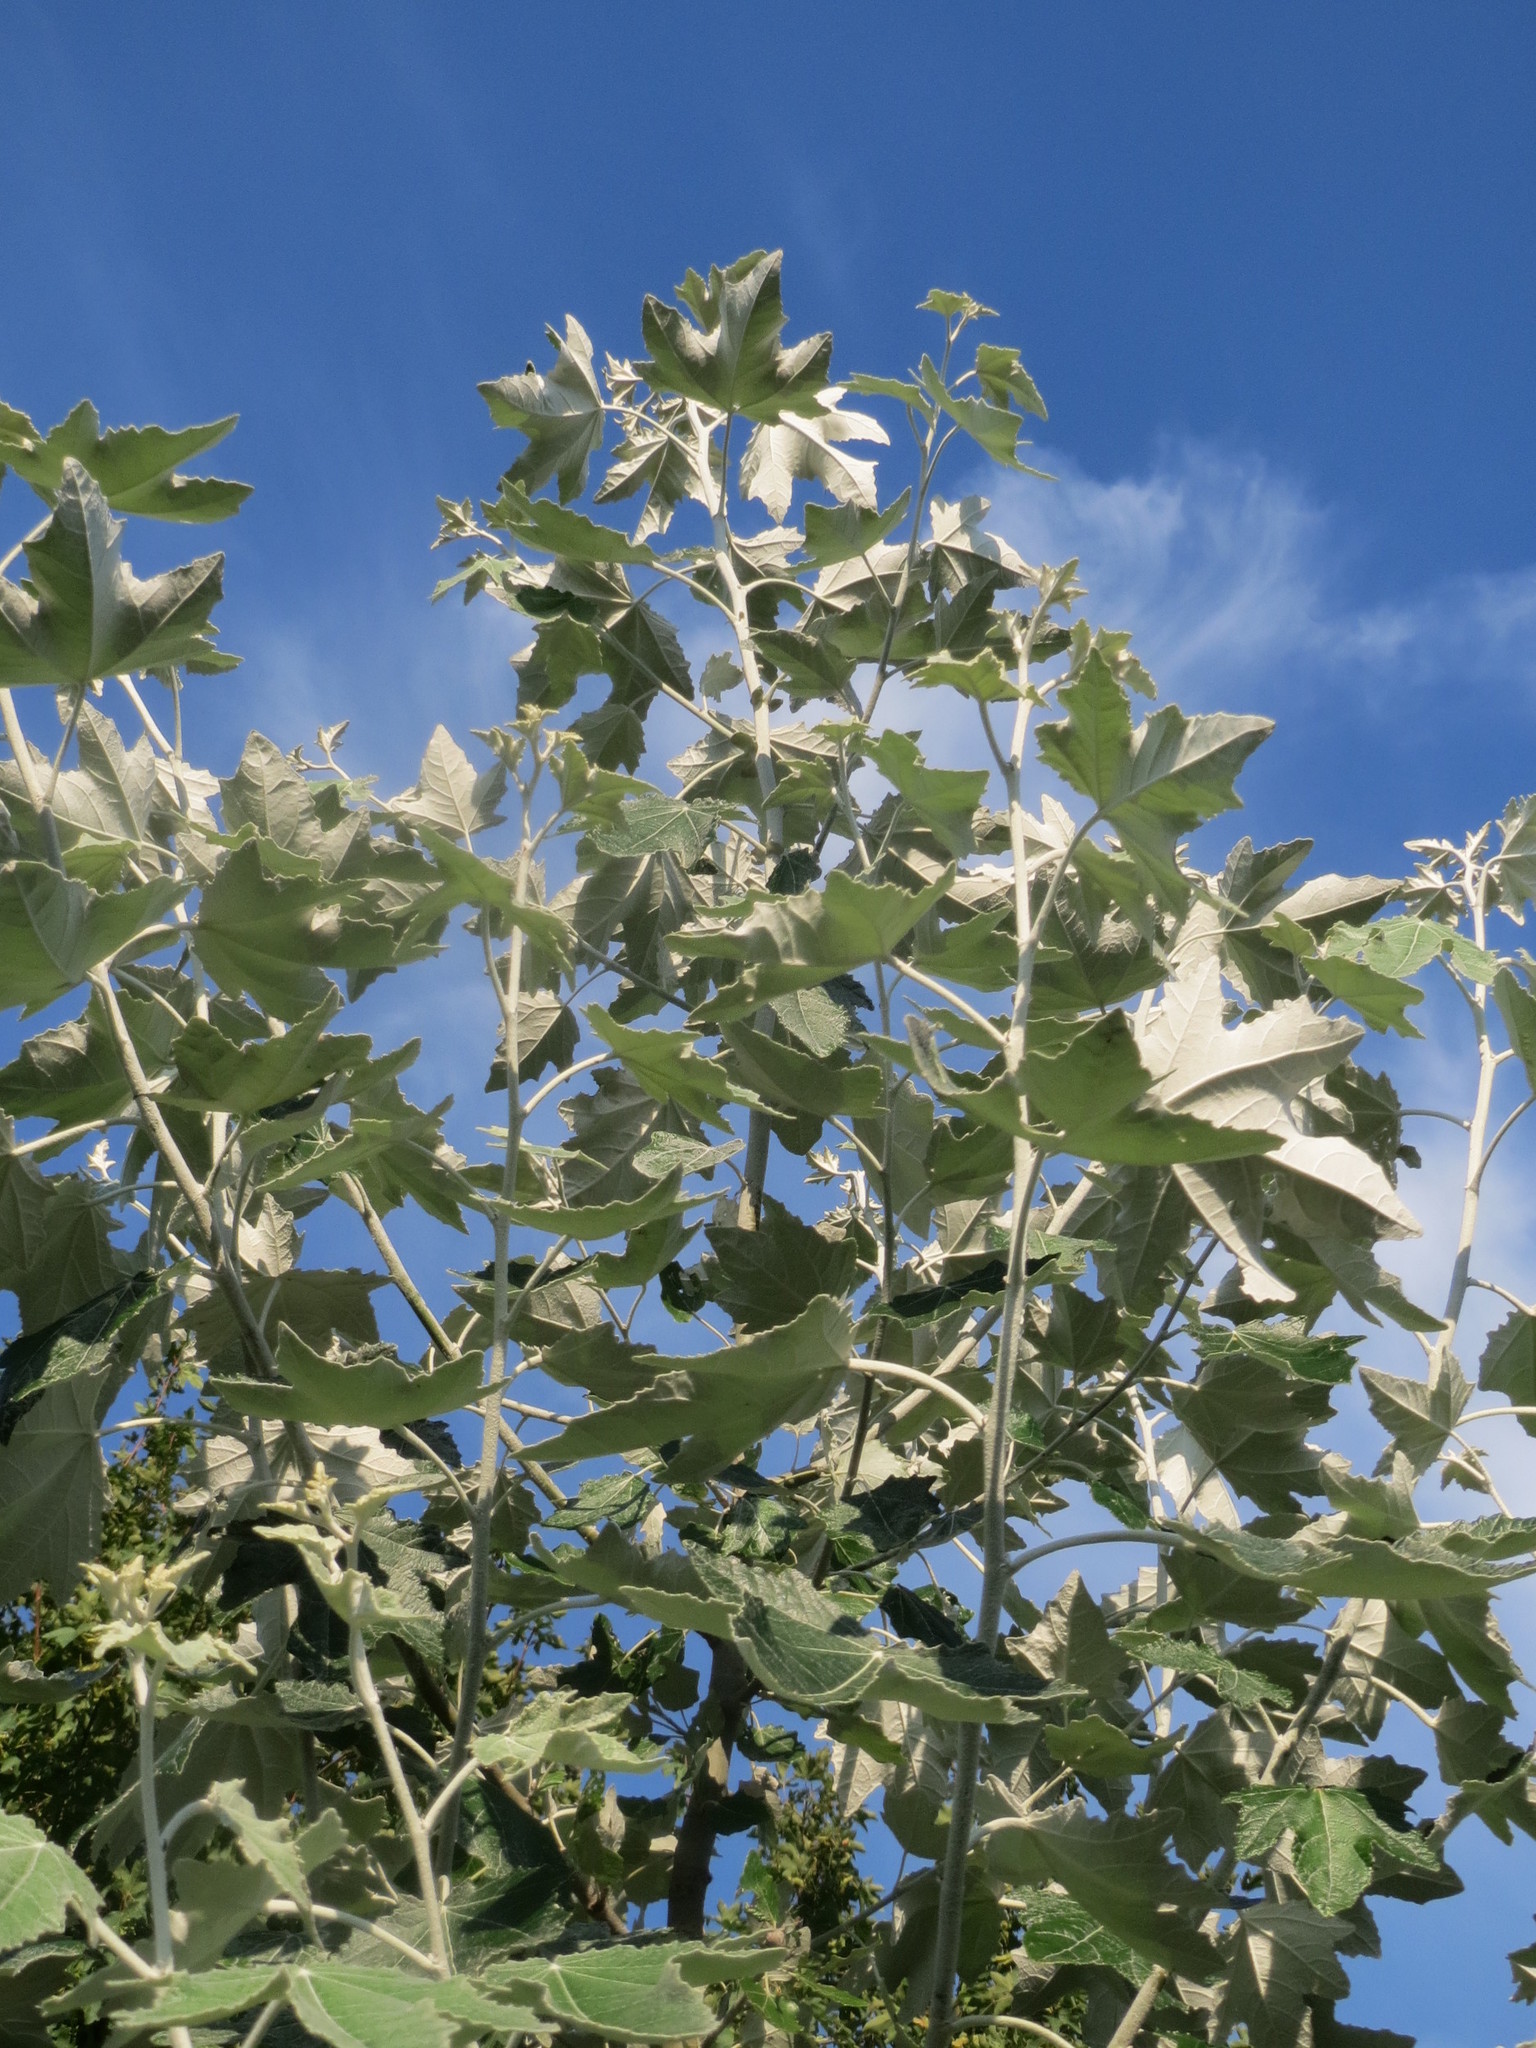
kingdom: Plantae
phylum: Tracheophyta
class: Magnoliopsida
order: Malpighiales
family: Salicaceae
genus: Populus
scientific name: Populus alba
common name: White poplar
